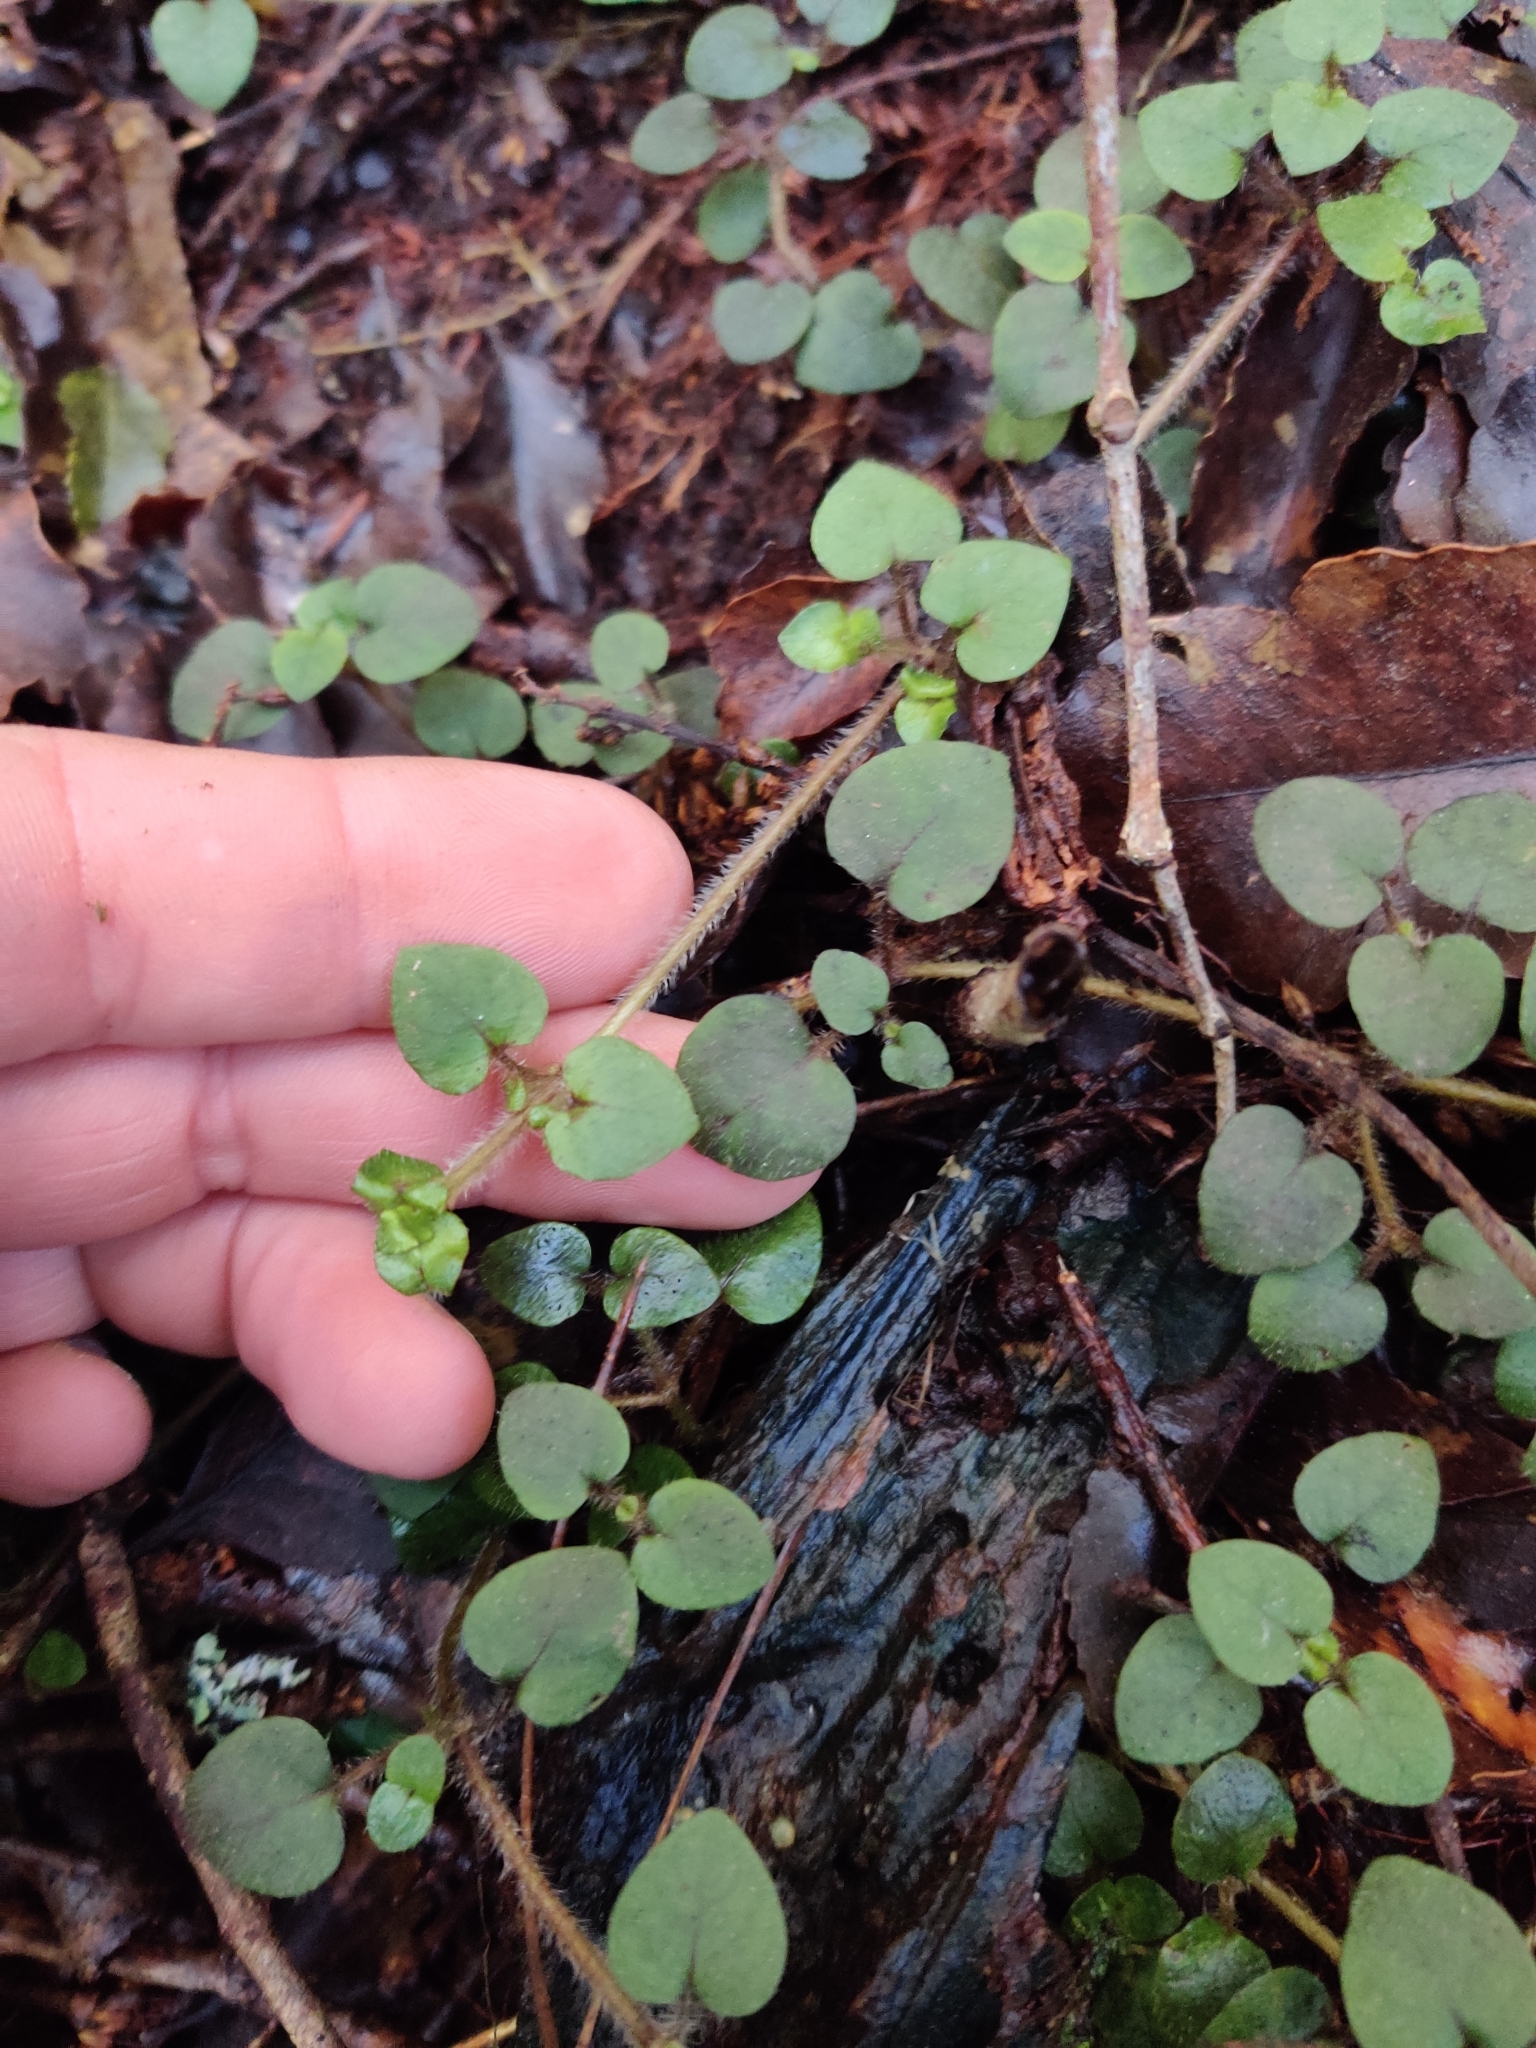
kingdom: Plantae
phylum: Tracheophyta
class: Magnoliopsida
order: Gentianales
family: Rubiaceae
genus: Nertera
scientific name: Nertera villosa
